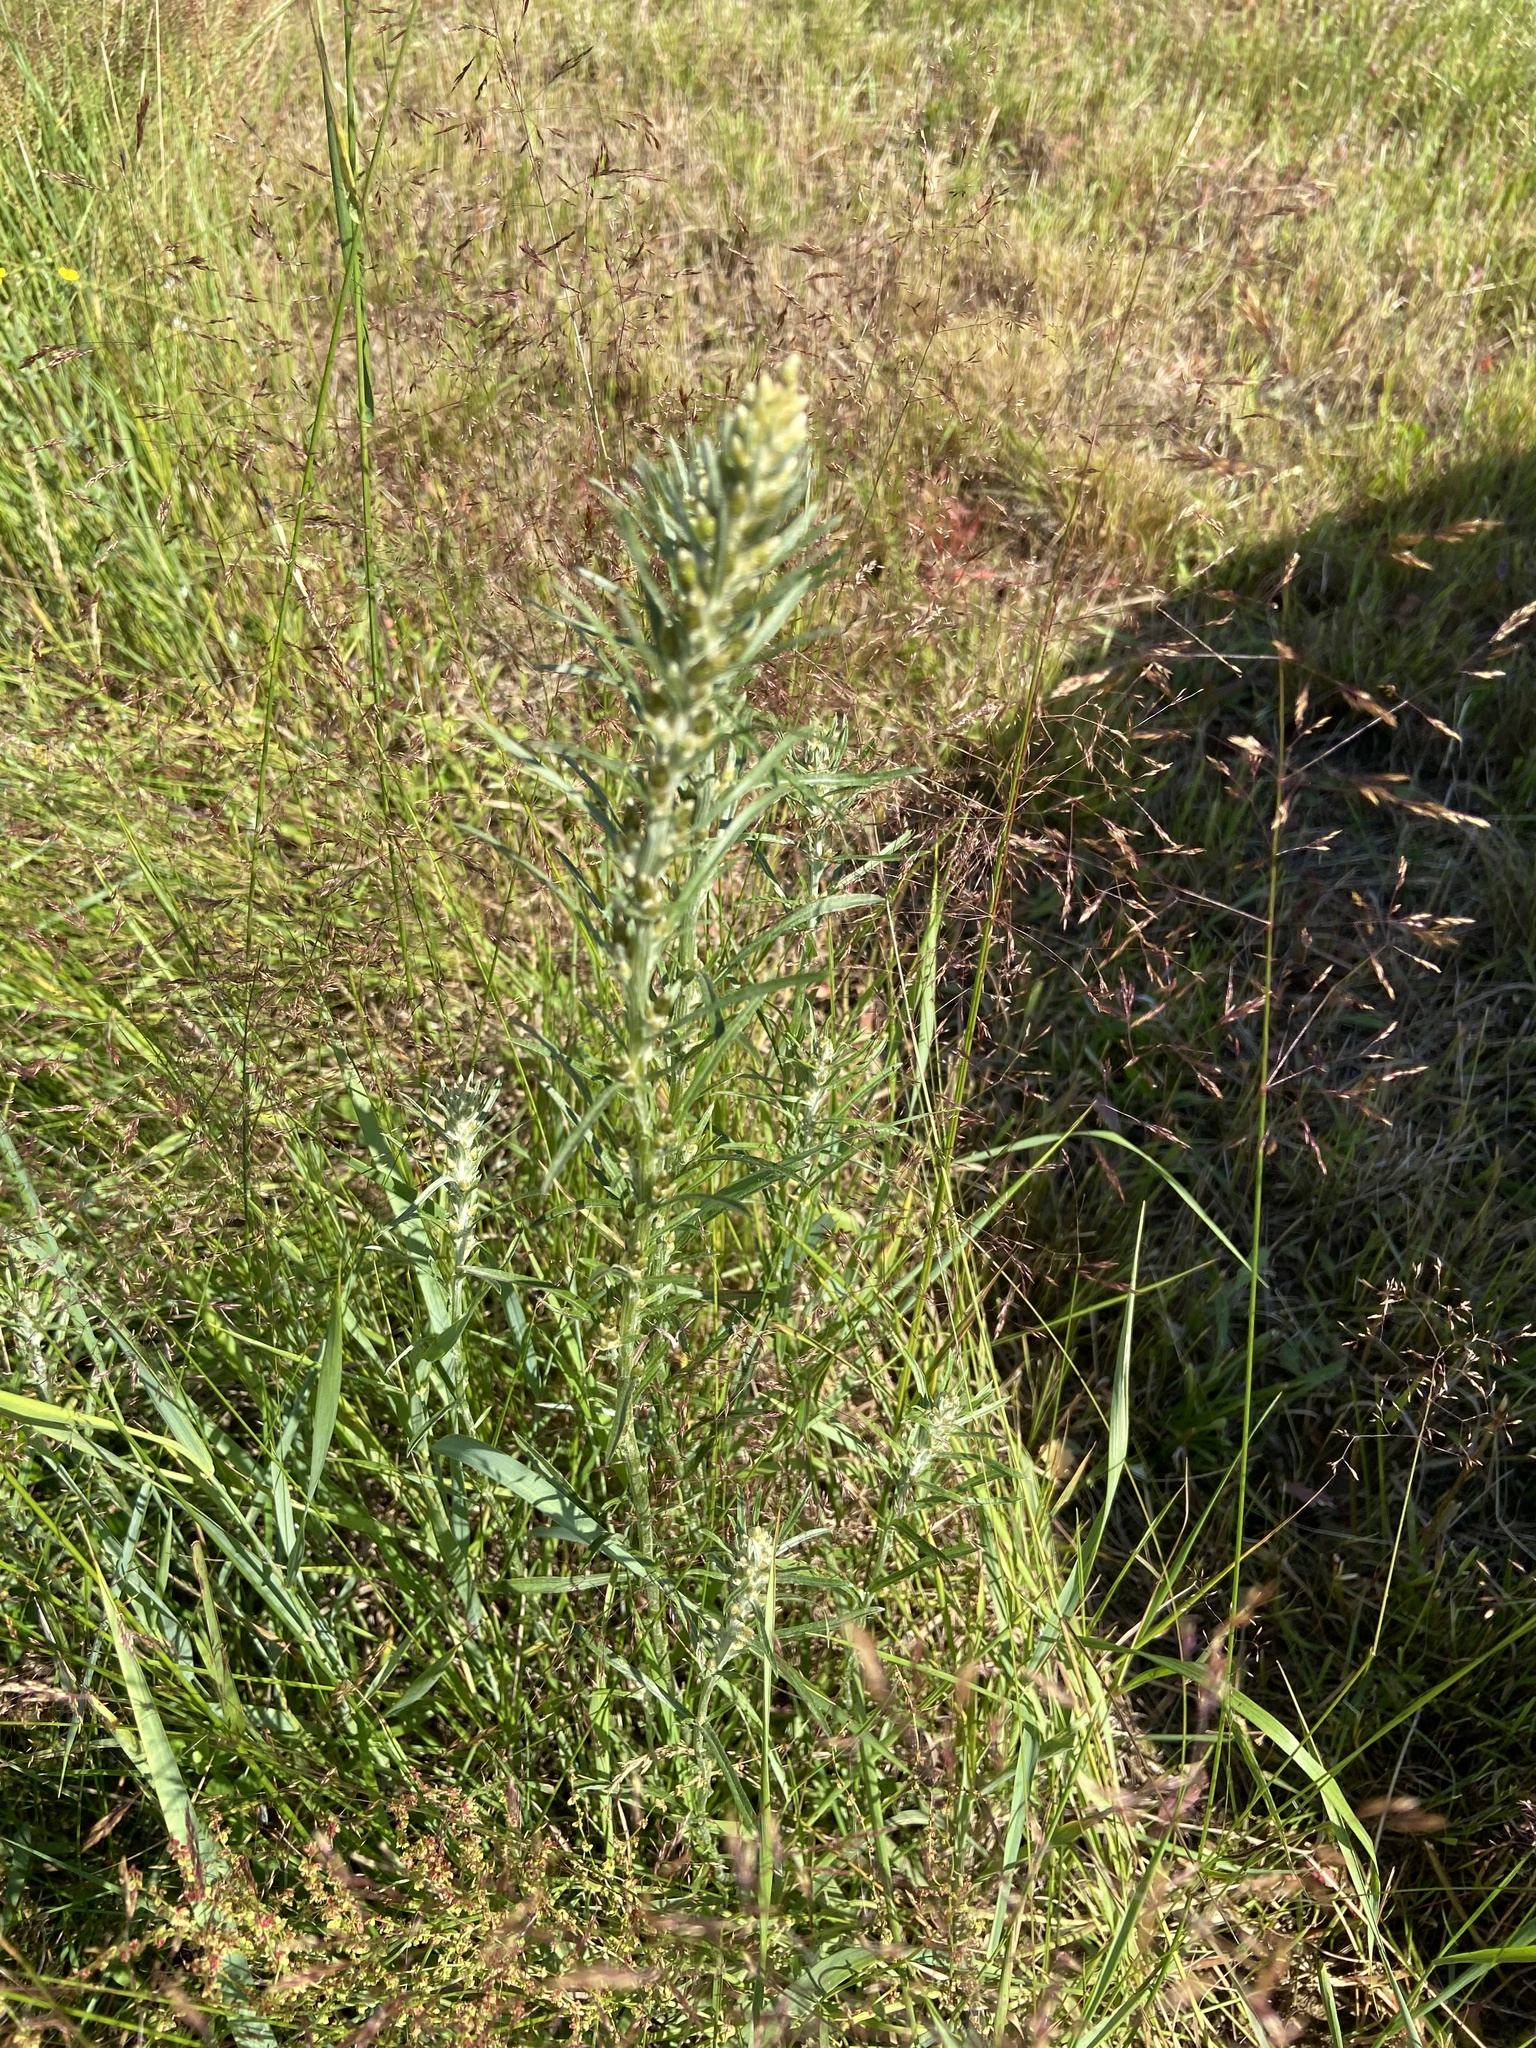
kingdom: Plantae
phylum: Tracheophyta
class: Magnoliopsida
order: Asterales
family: Asteraceae
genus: Omalotheca
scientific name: Omalotheca sylvatica
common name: Heath cudweed
